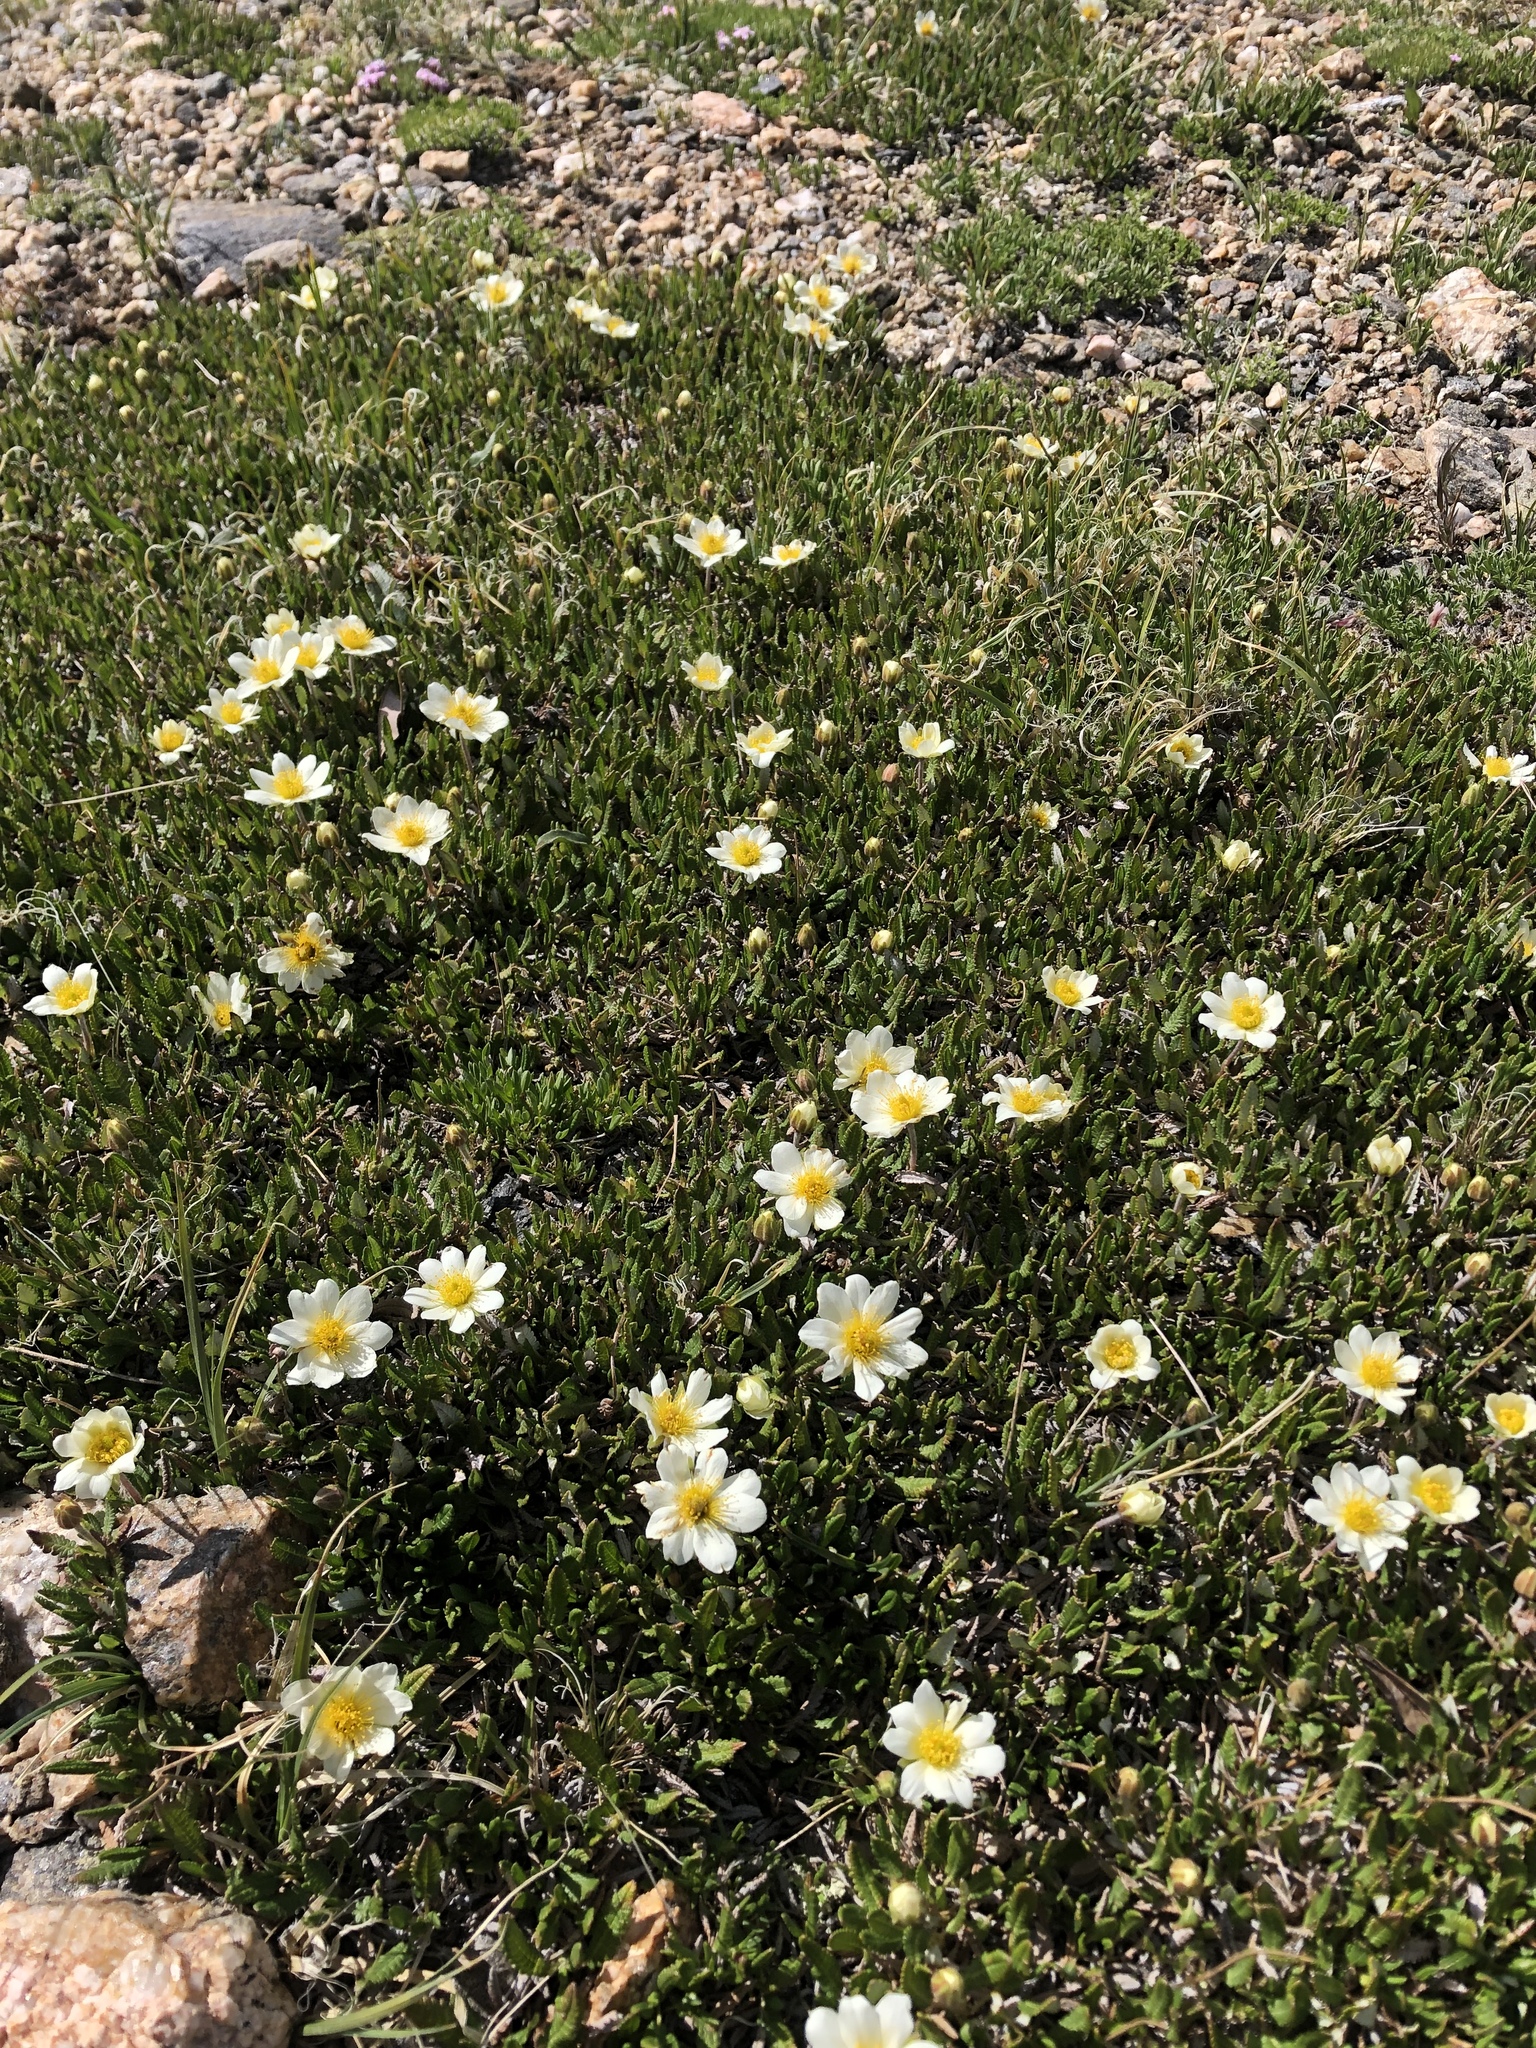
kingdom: Plantae
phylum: Tracheophyta
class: Magnoliopsida
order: Rosales
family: Rosaceae
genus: Dryas
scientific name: Dryas octopetala
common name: Eight-petal mountain-avens
